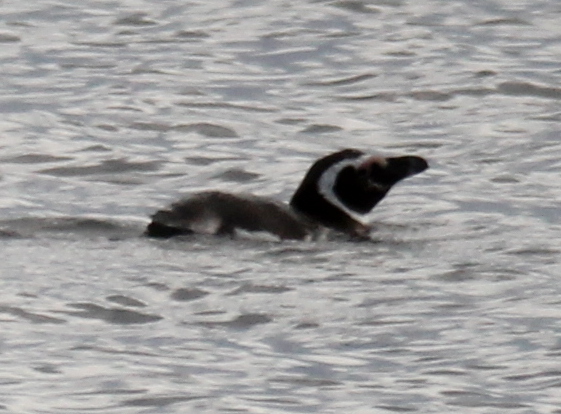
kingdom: Animalia
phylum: Chordata
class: Aves
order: Sphenisciformes
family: Spheniscidae
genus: Spheniscus
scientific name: Spheniscus magellanicus
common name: Magellanic penguin
